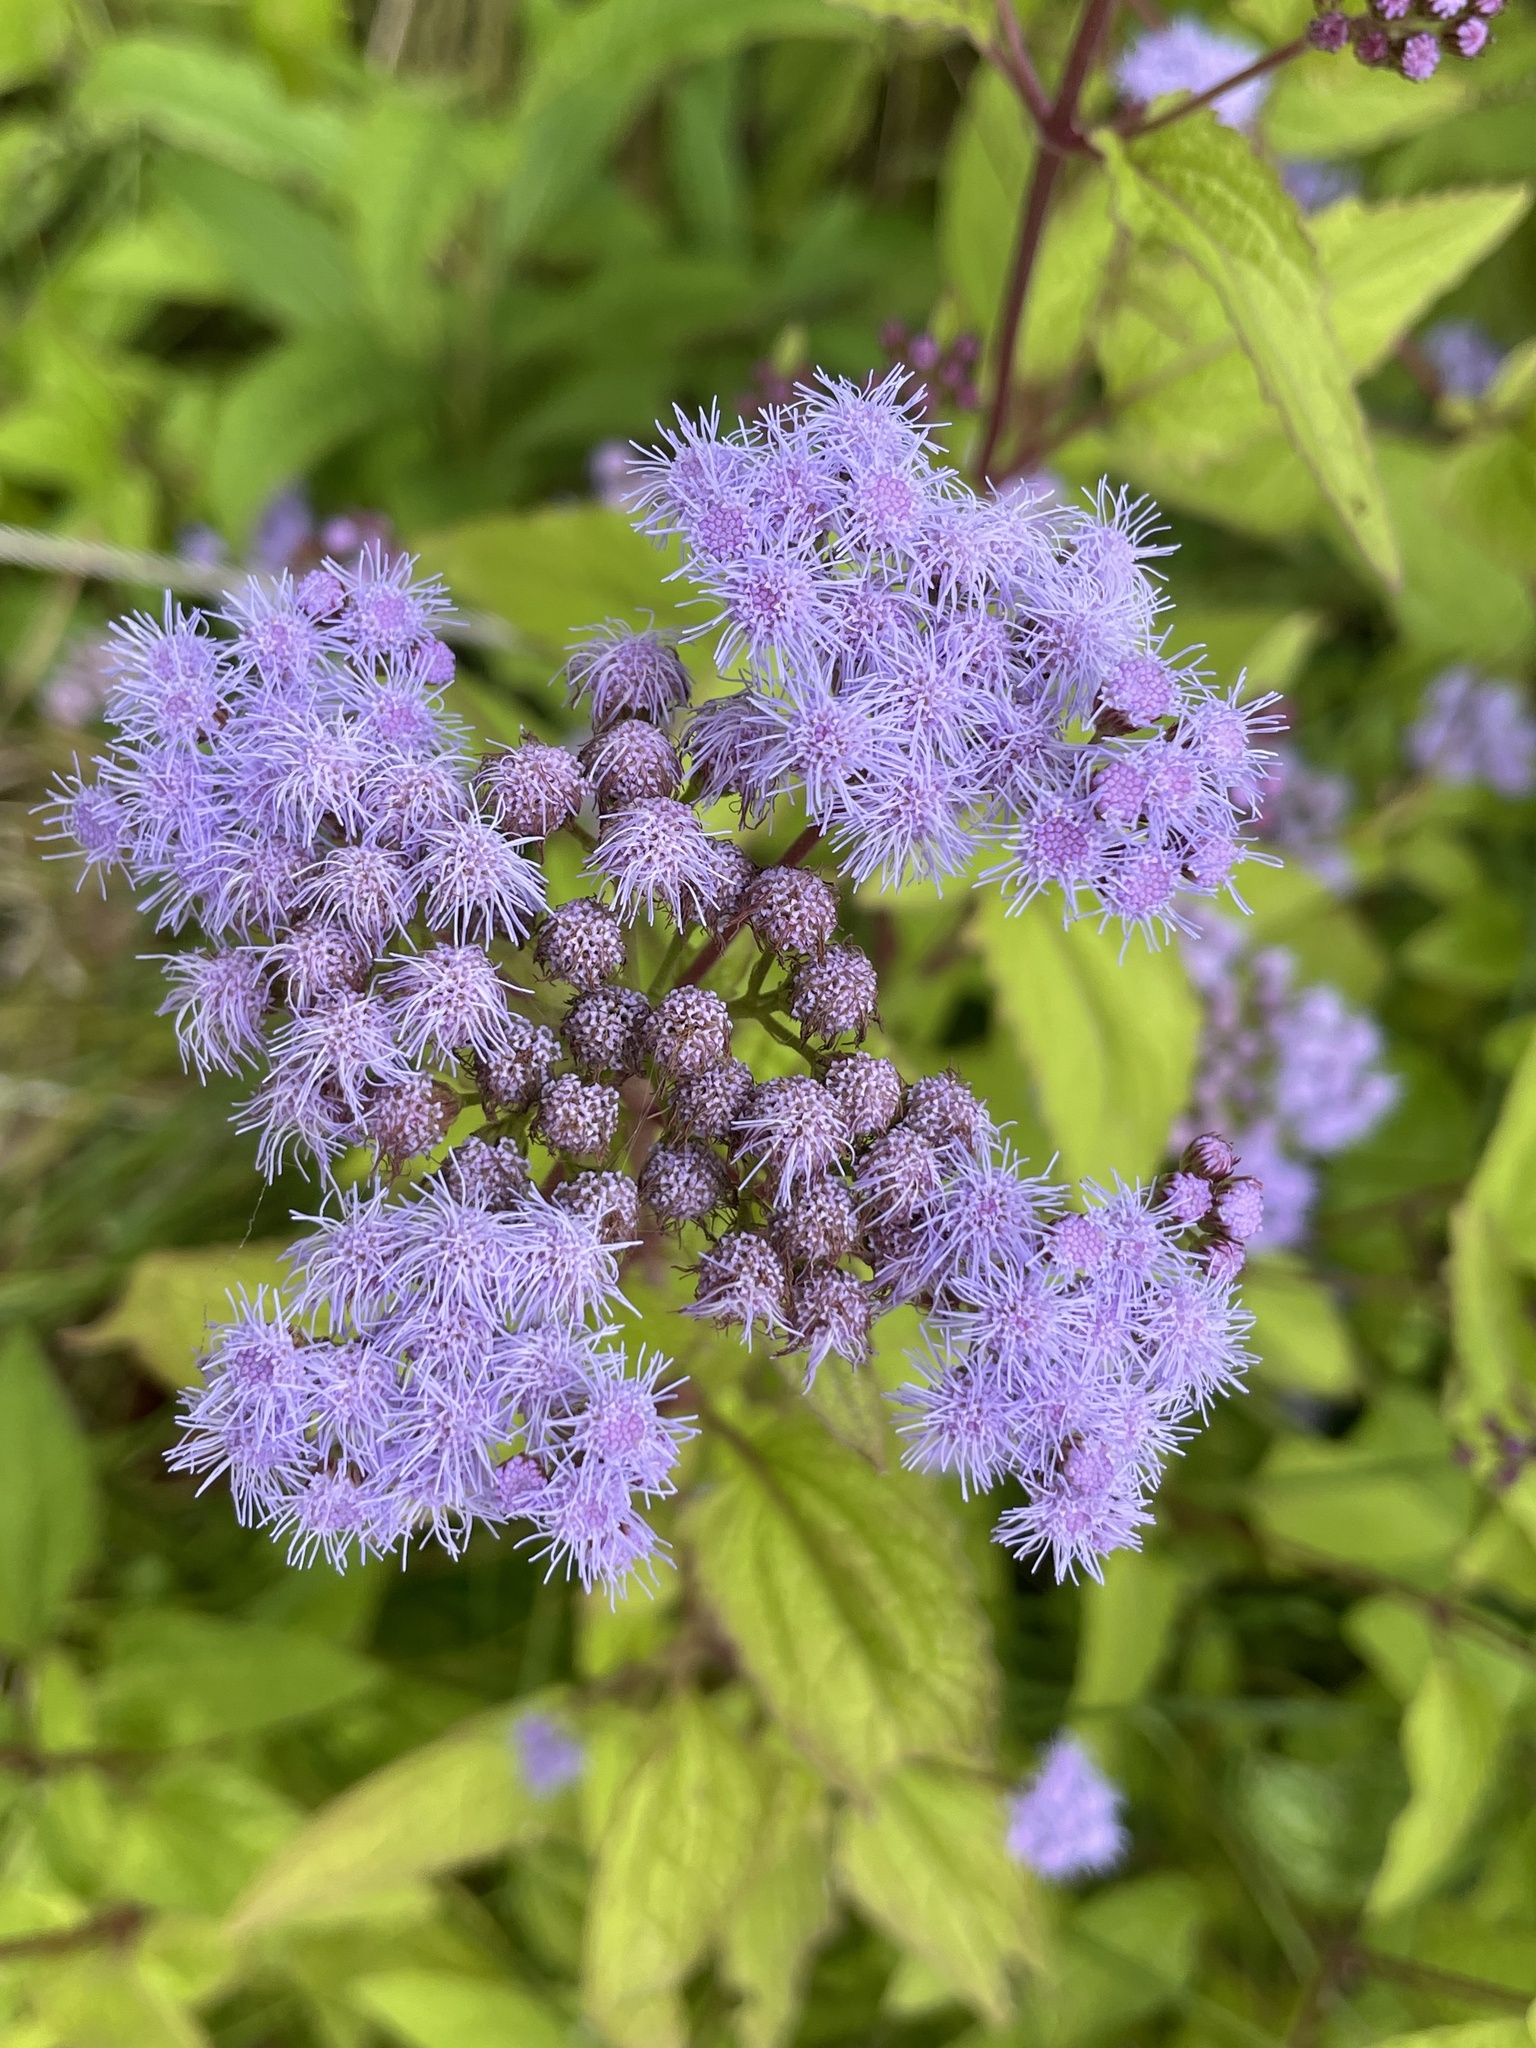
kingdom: Plantae
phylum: Tracheophyta
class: Magnoliopsida
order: Asterales
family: Asteraceae
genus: Conoclinium
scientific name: Conoclinium coelestinum
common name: Blue mistflower
